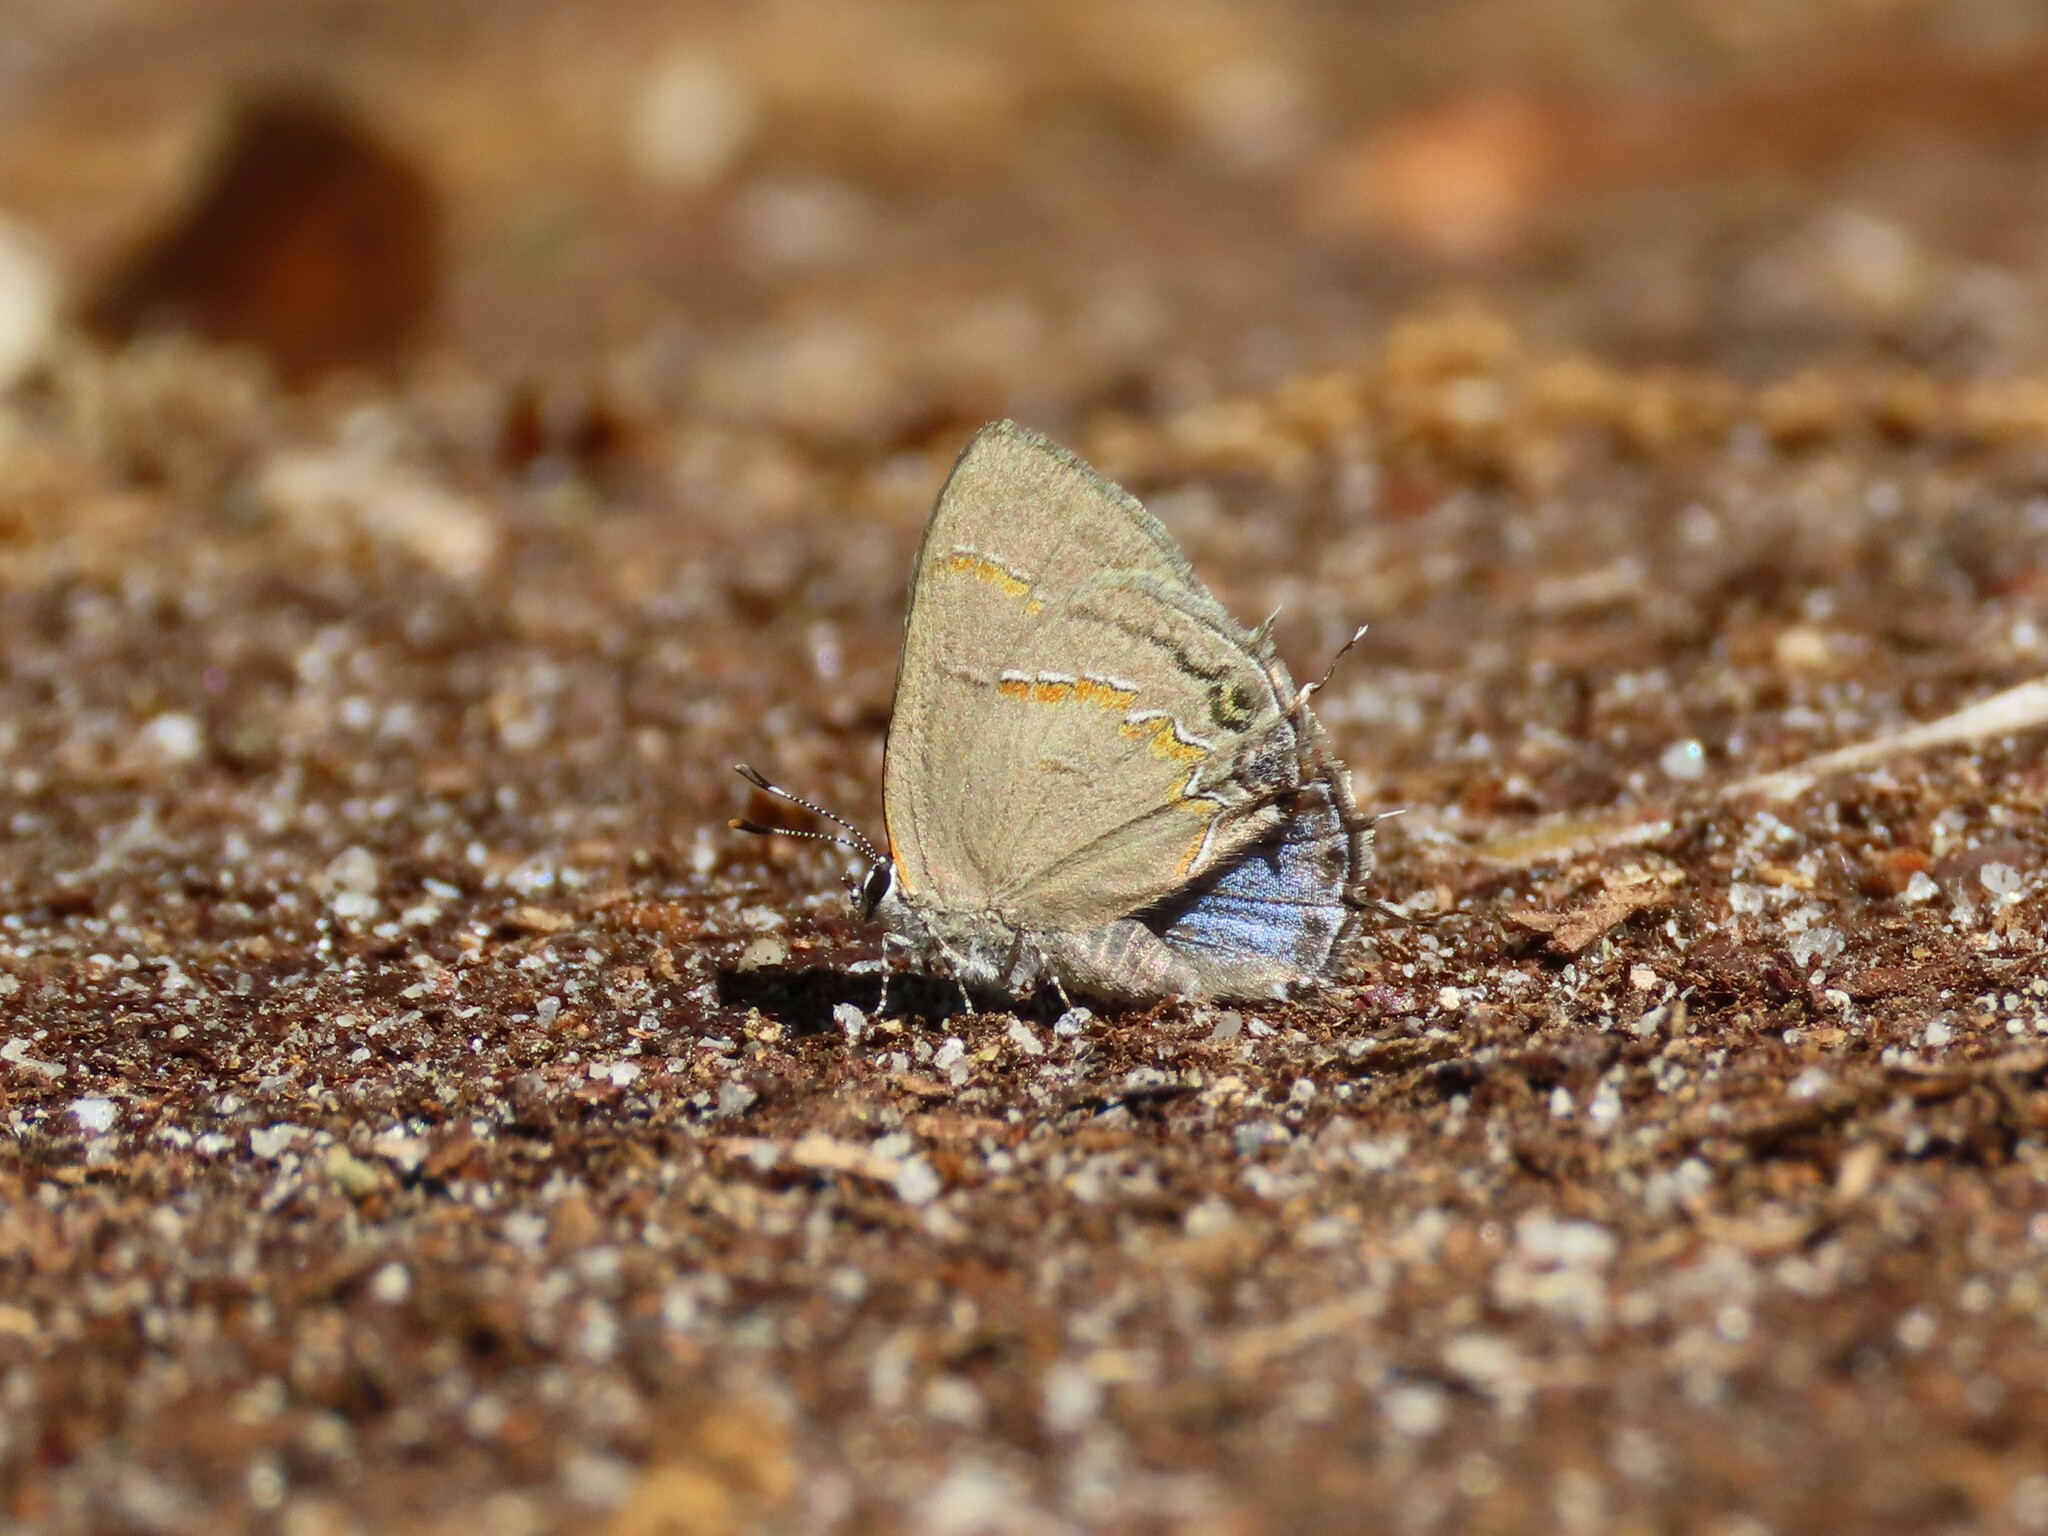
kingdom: Animalia
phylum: Arthropoda
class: Insecta
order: Lepidoptera
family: Lycaenidae
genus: Calycopis
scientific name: Calycopis cecrops
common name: Red-banded hairstreak
